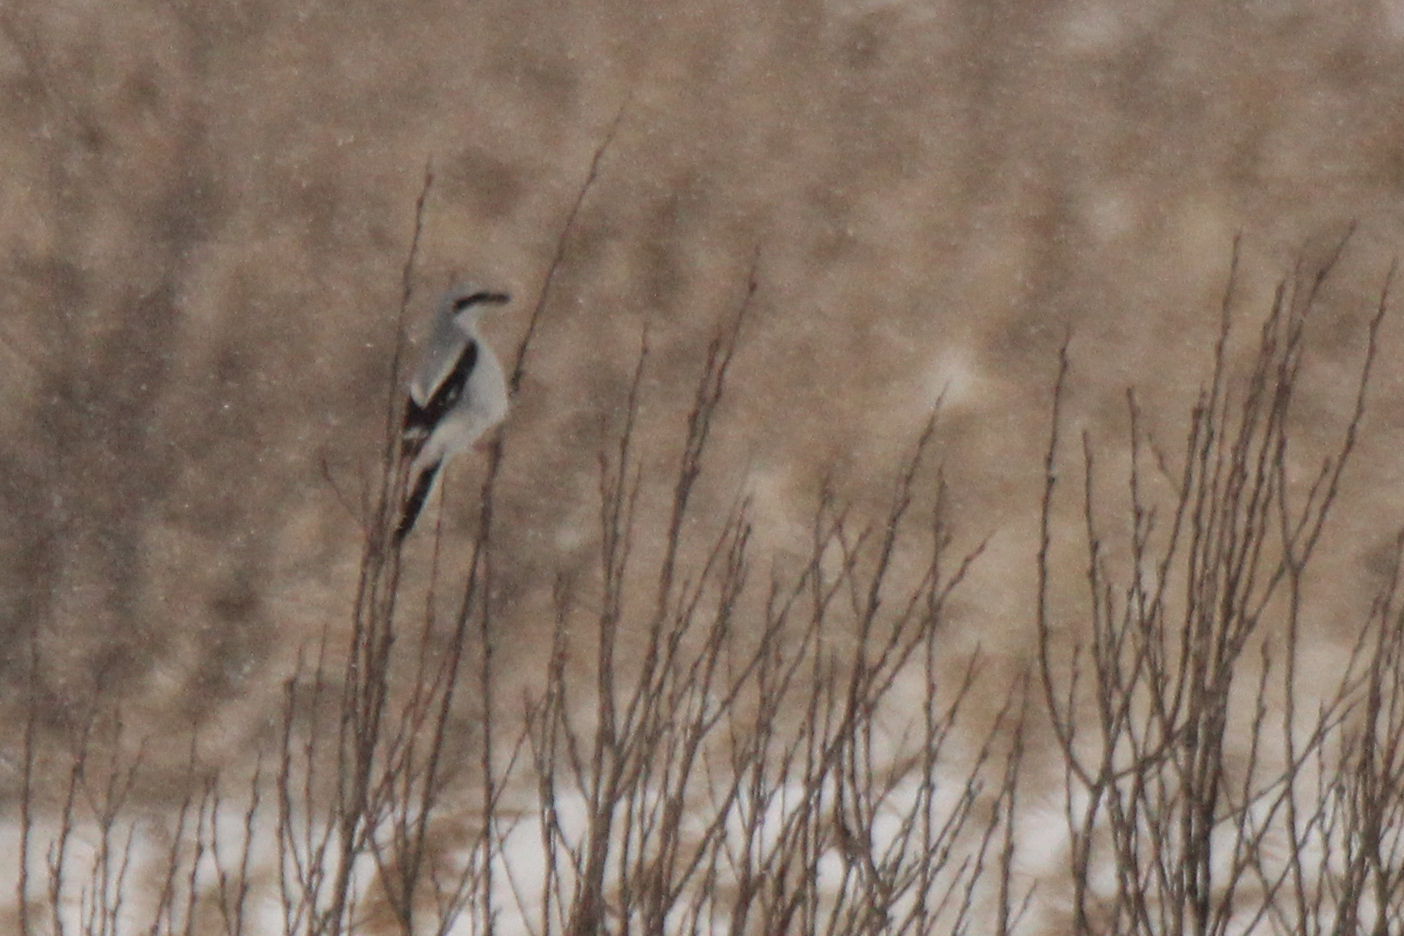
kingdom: Animalia
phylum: Chordata
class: Aves
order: Passeriformes
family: Laniidae
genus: Lanius
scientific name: Lanius borealis
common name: Northern shrike
